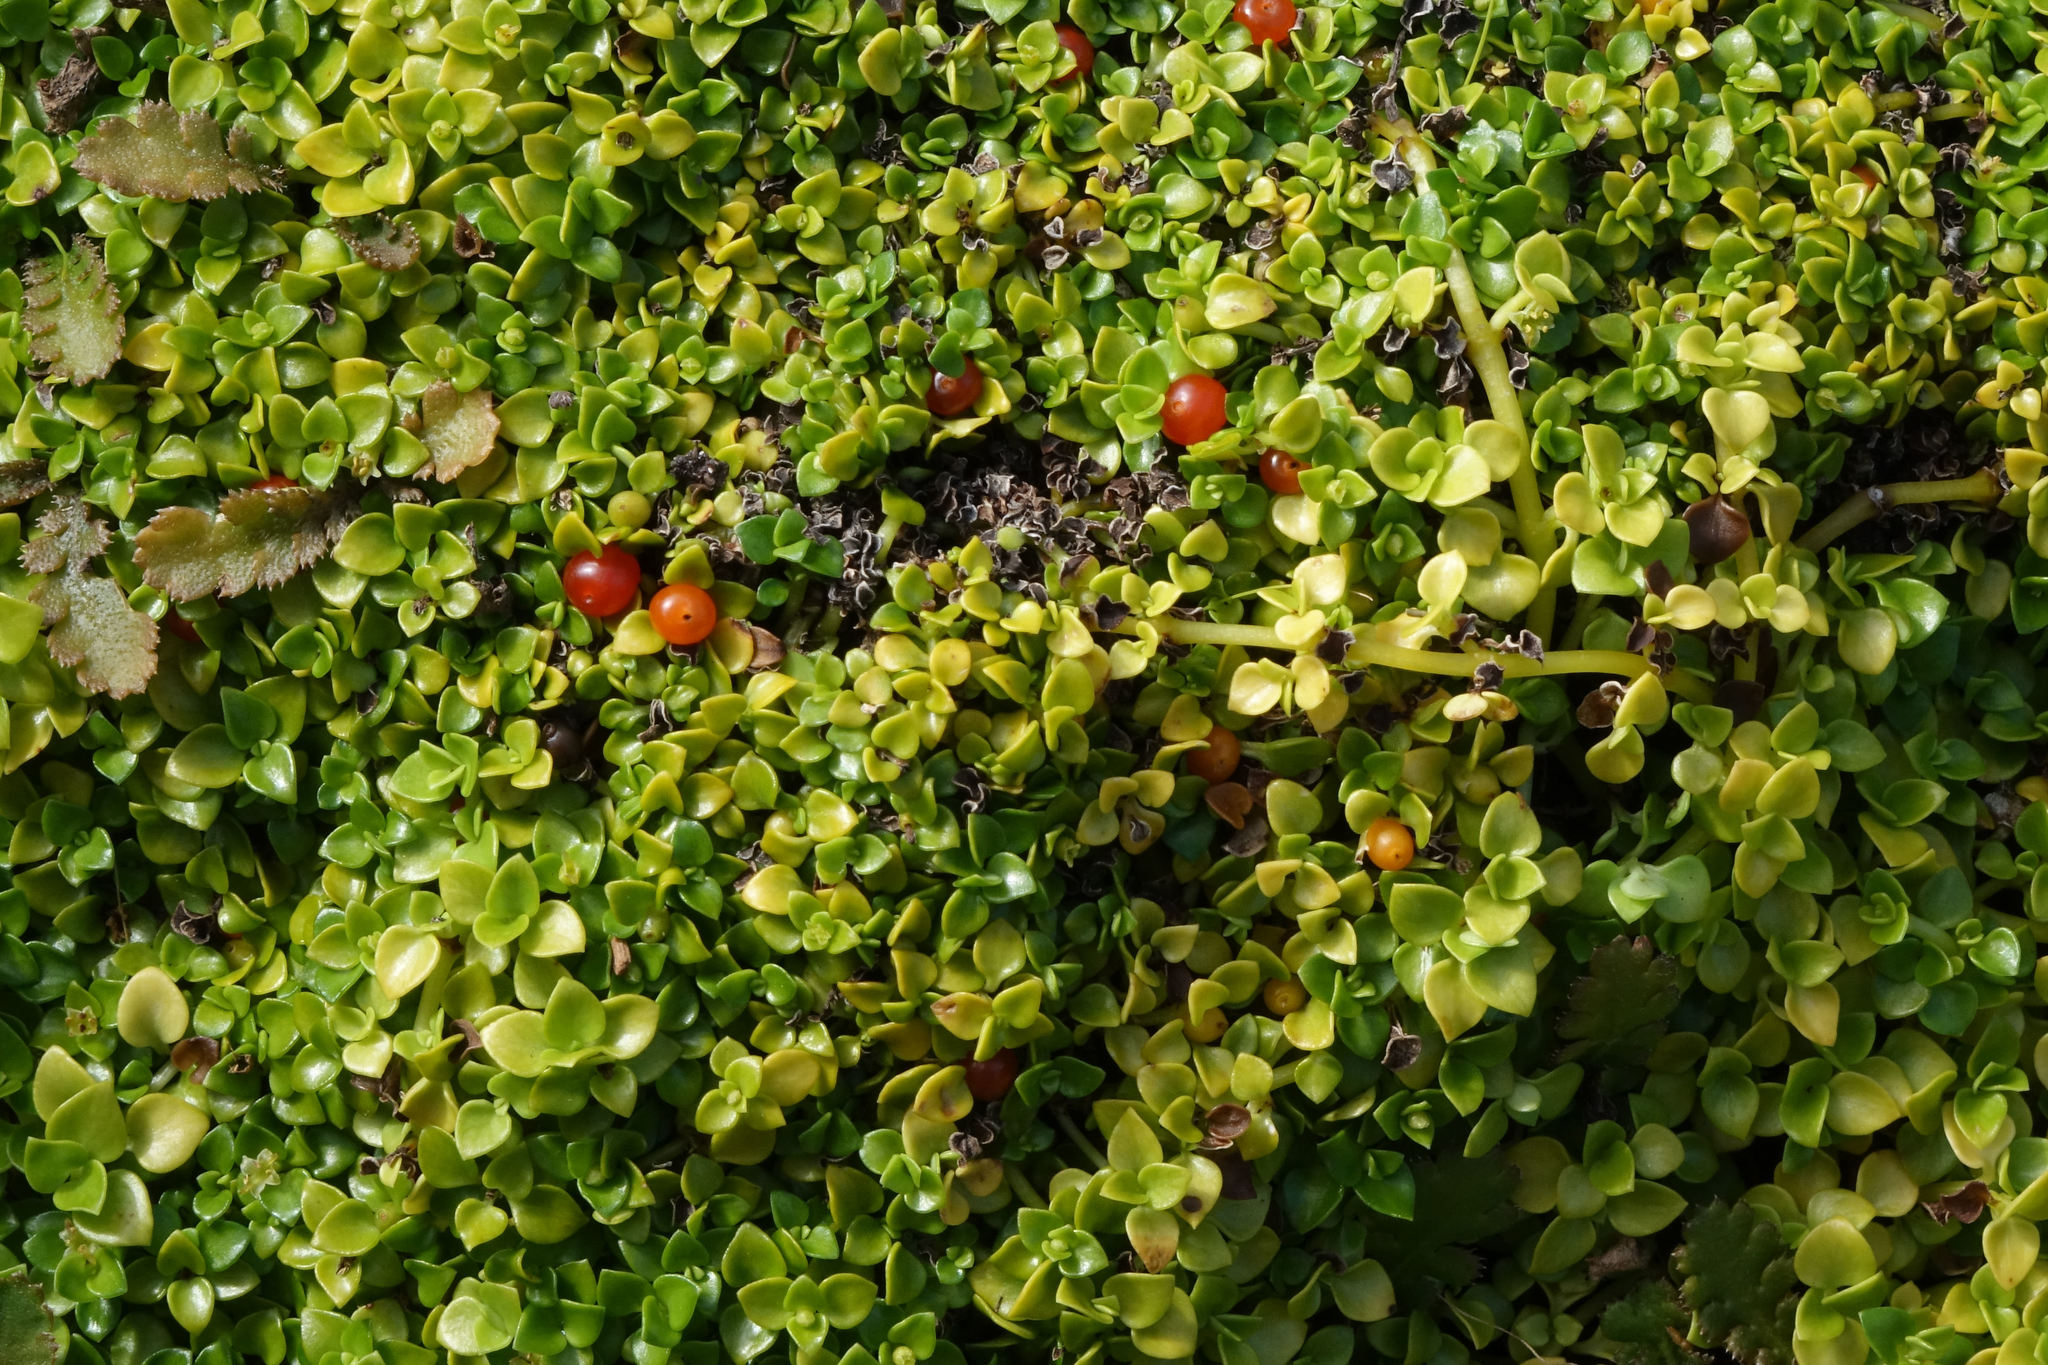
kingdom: Plantae
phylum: Tracheophyta
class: Magnoliopsida
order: Gentianales
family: Rubiaceae
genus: Nertera
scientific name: Nertera granadensis
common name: Beadplant
